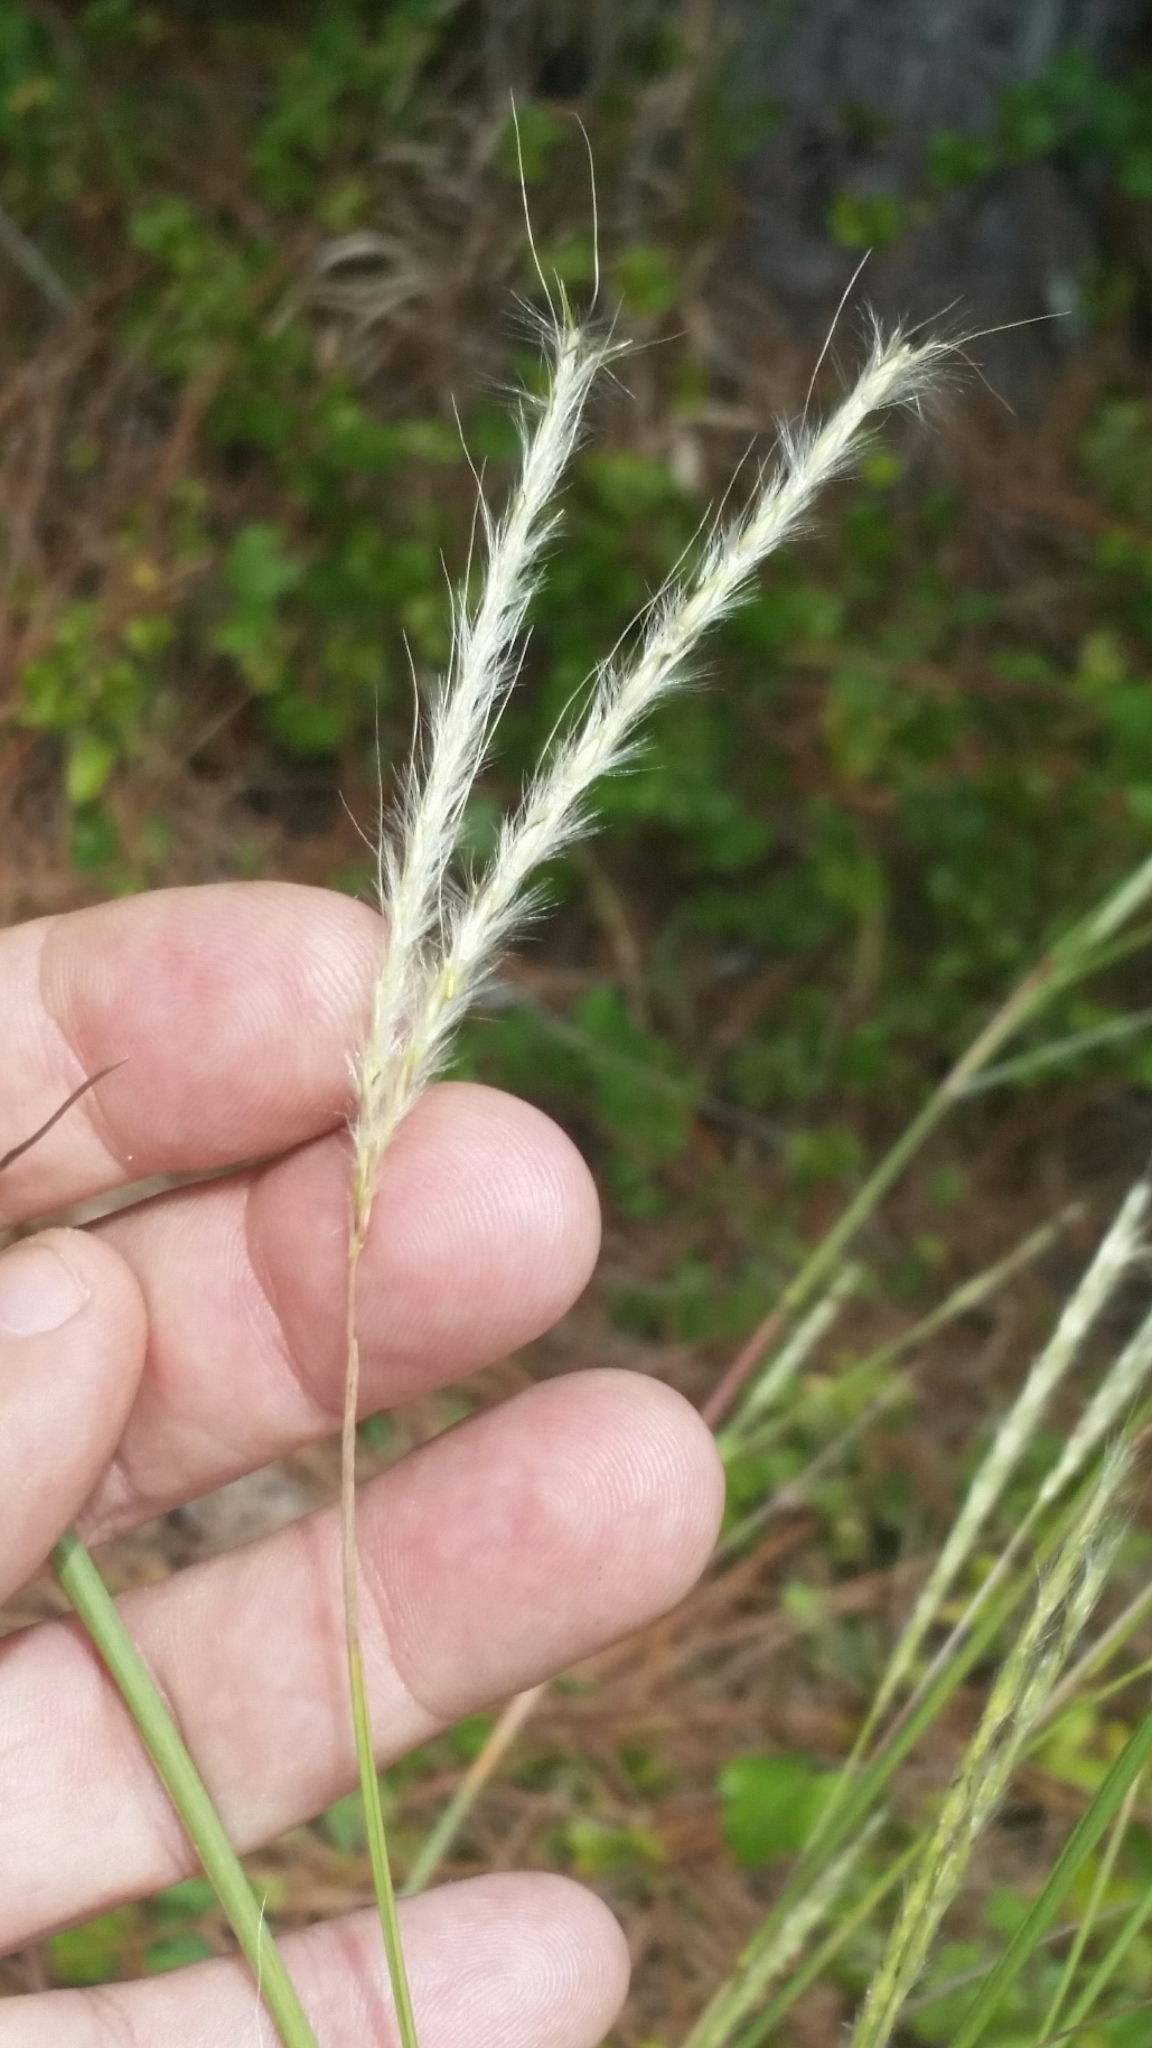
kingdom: Plantae
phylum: Tracheophyta
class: Liliopsida
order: Poales
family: Poaceae
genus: Andropogon
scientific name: Andropogon cabanisii
